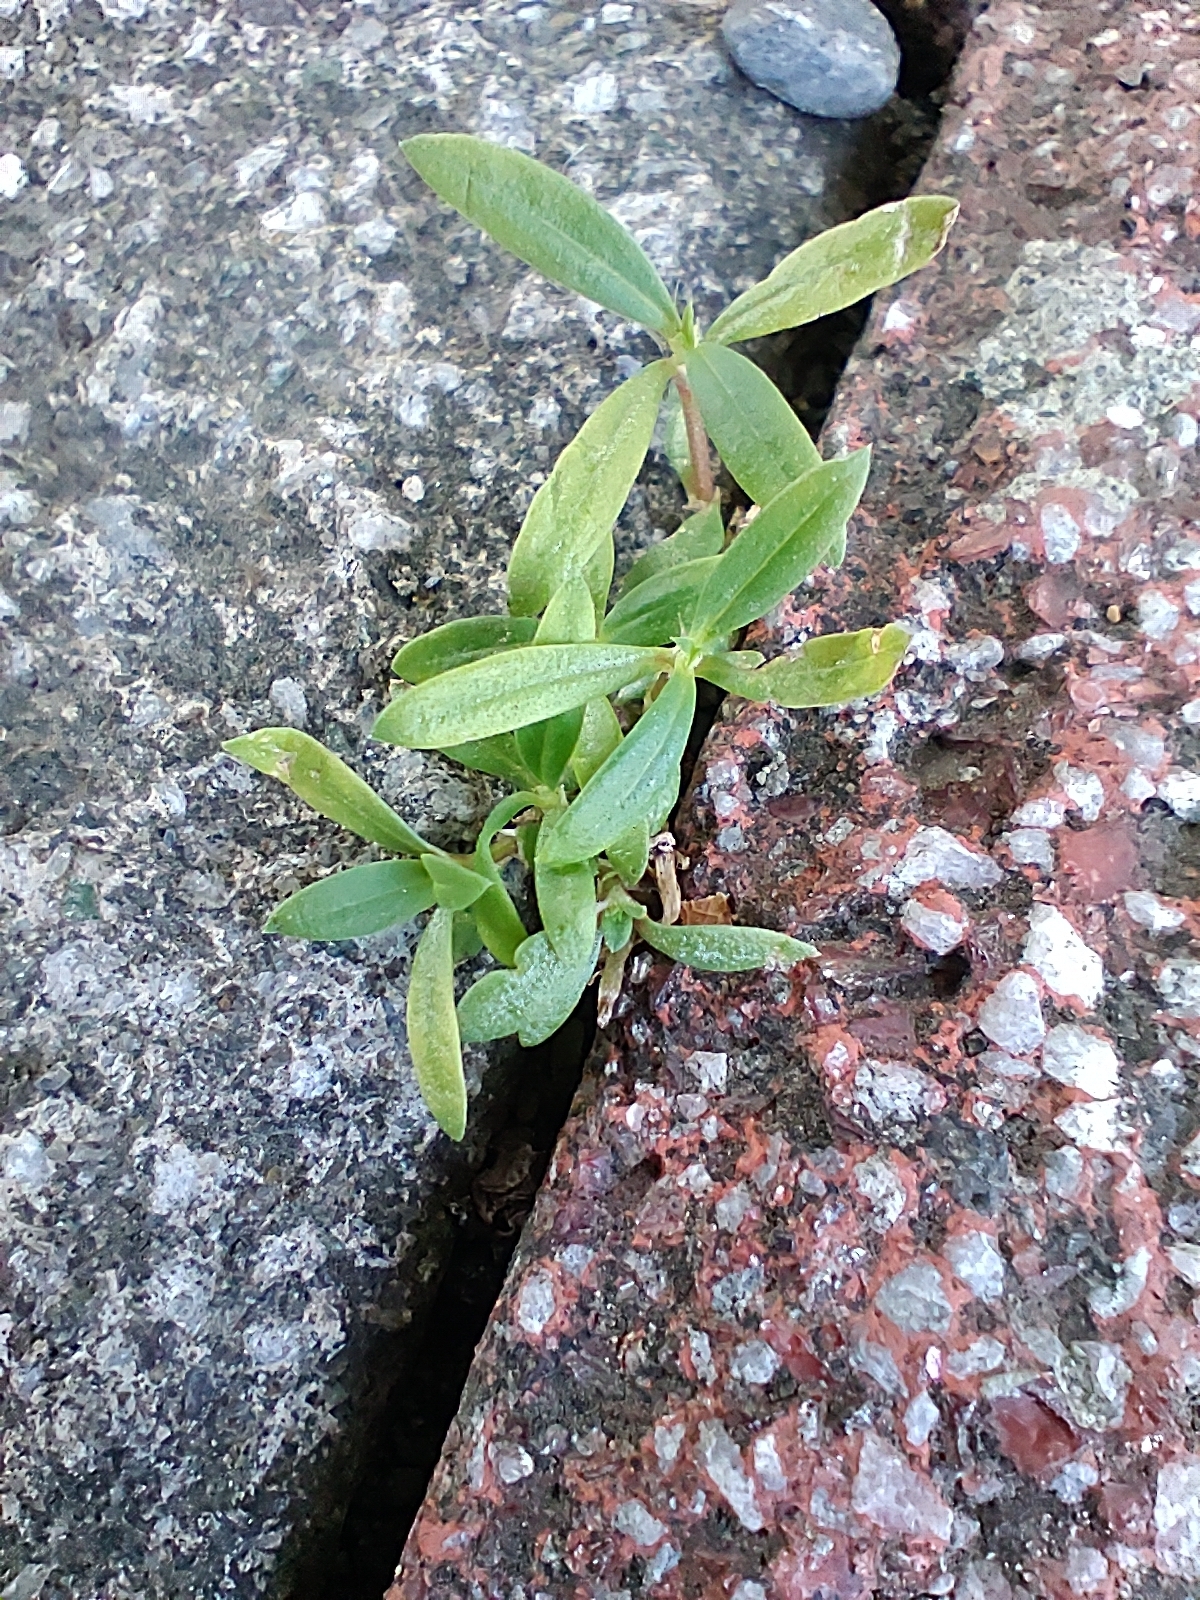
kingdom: Plantae
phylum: Tracheophyta
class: Magnoliopsida
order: Gentianales
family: Rubiaceae
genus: Oldenlandia
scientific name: Oldenlandia corymbosa
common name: Flat-top mille graines
